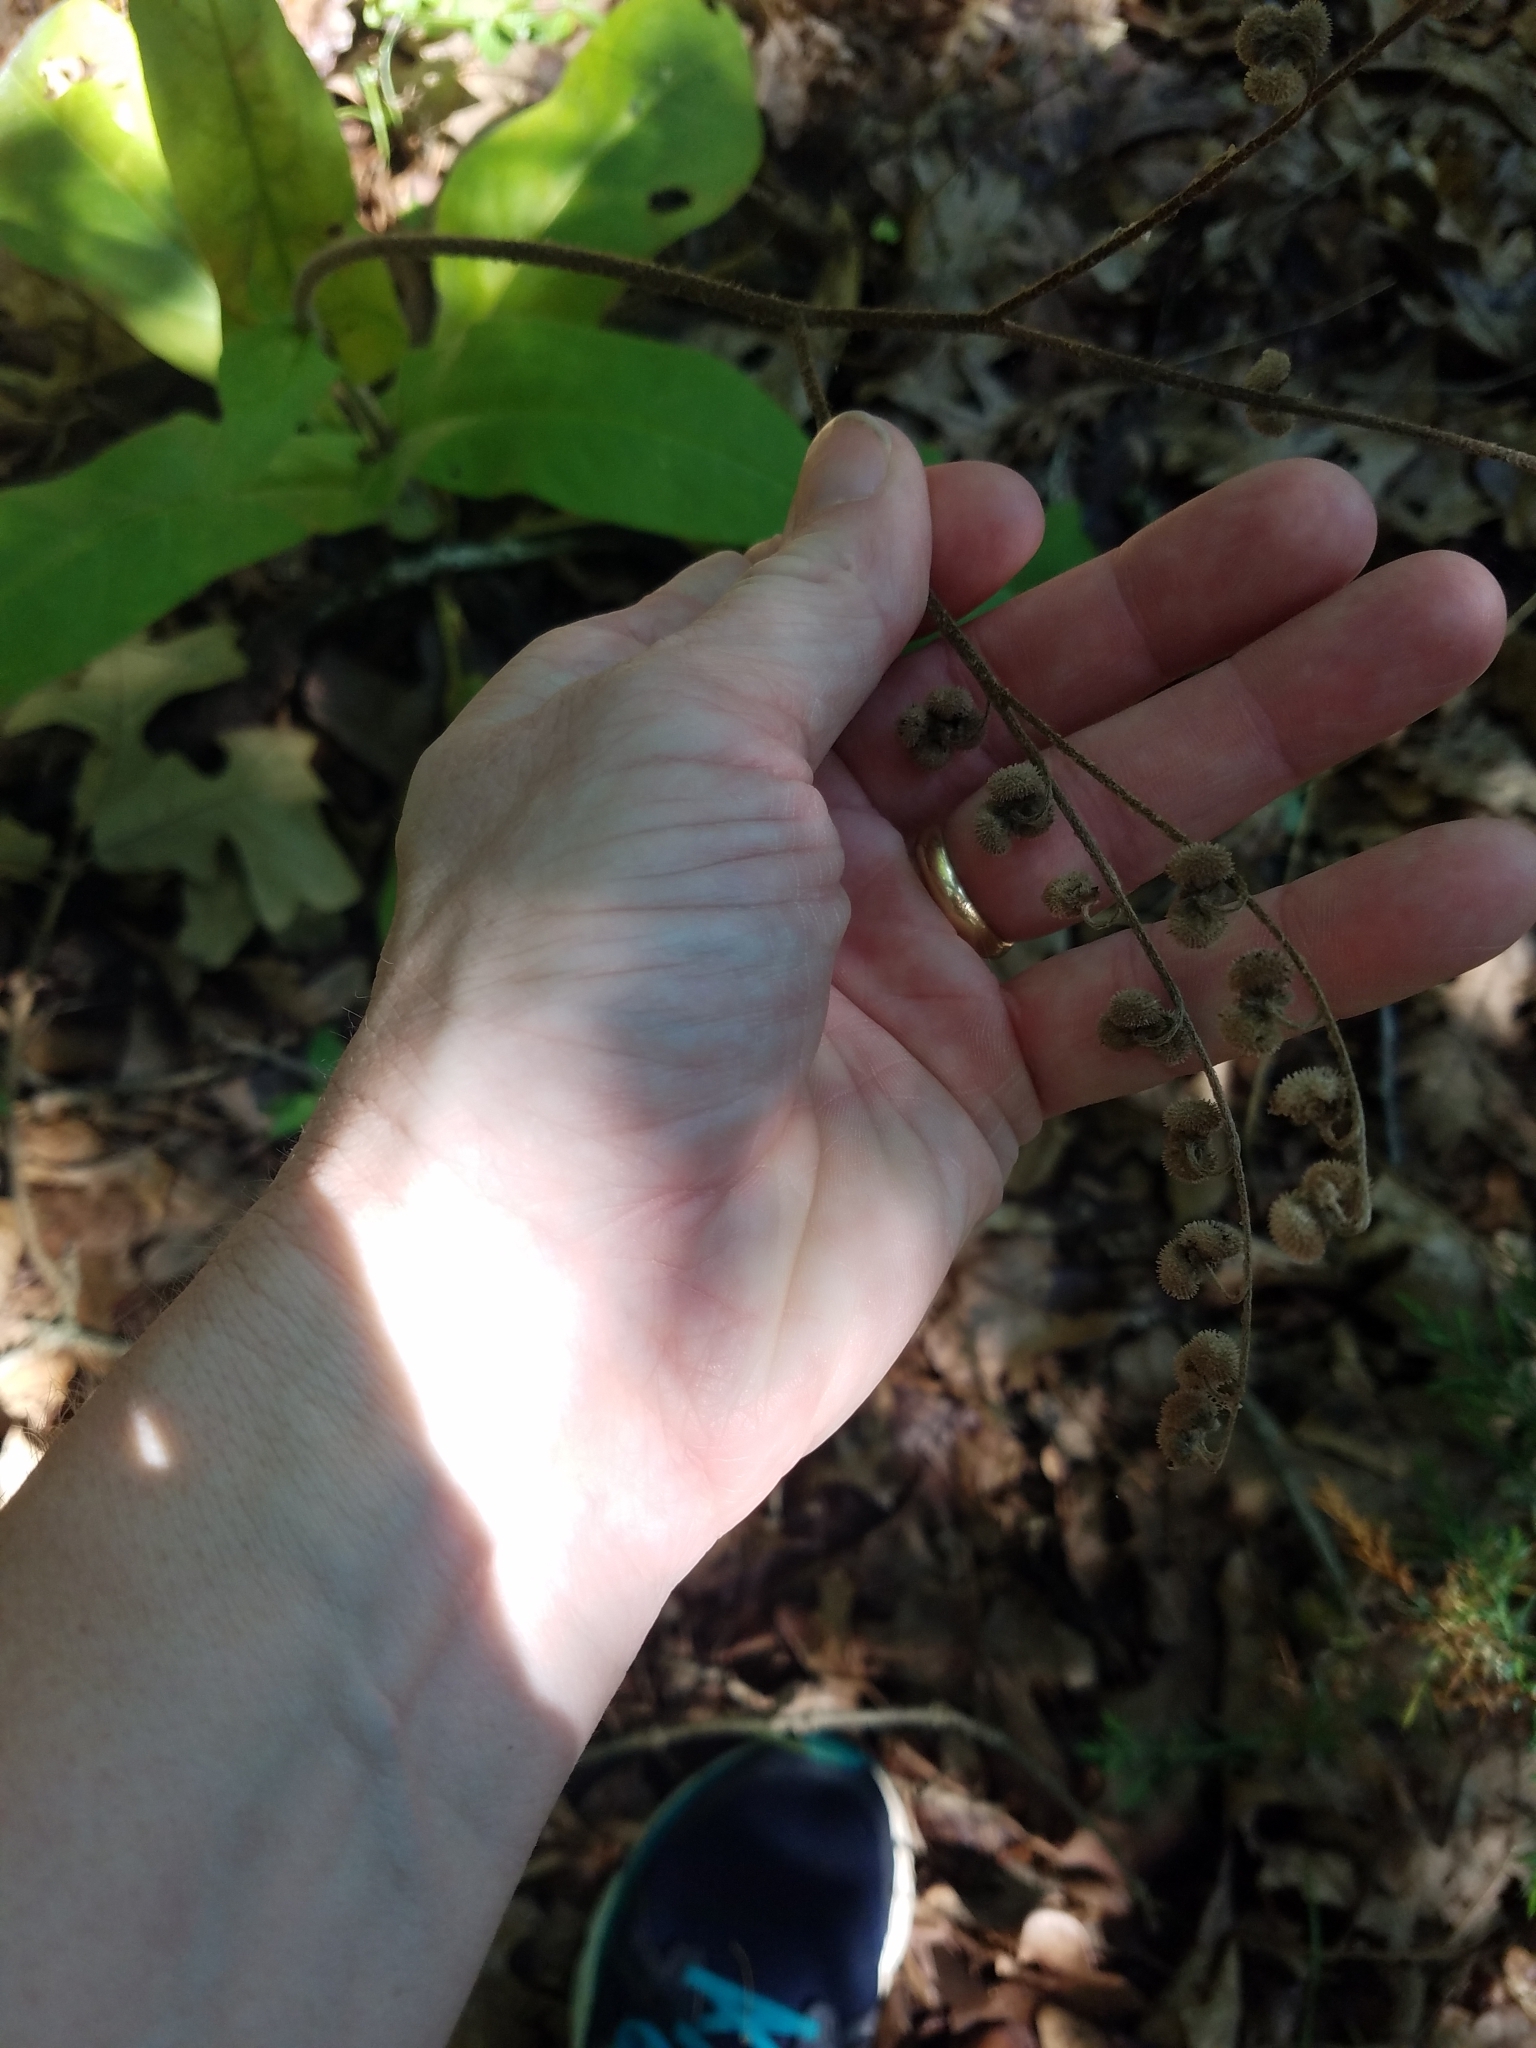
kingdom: Plantae
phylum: Tracheophyta
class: Magnoliopsida
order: Boraginales
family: Boraginaceae
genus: Andersonglossum
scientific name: Andersonglossum virginianum
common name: Wild comfrey
